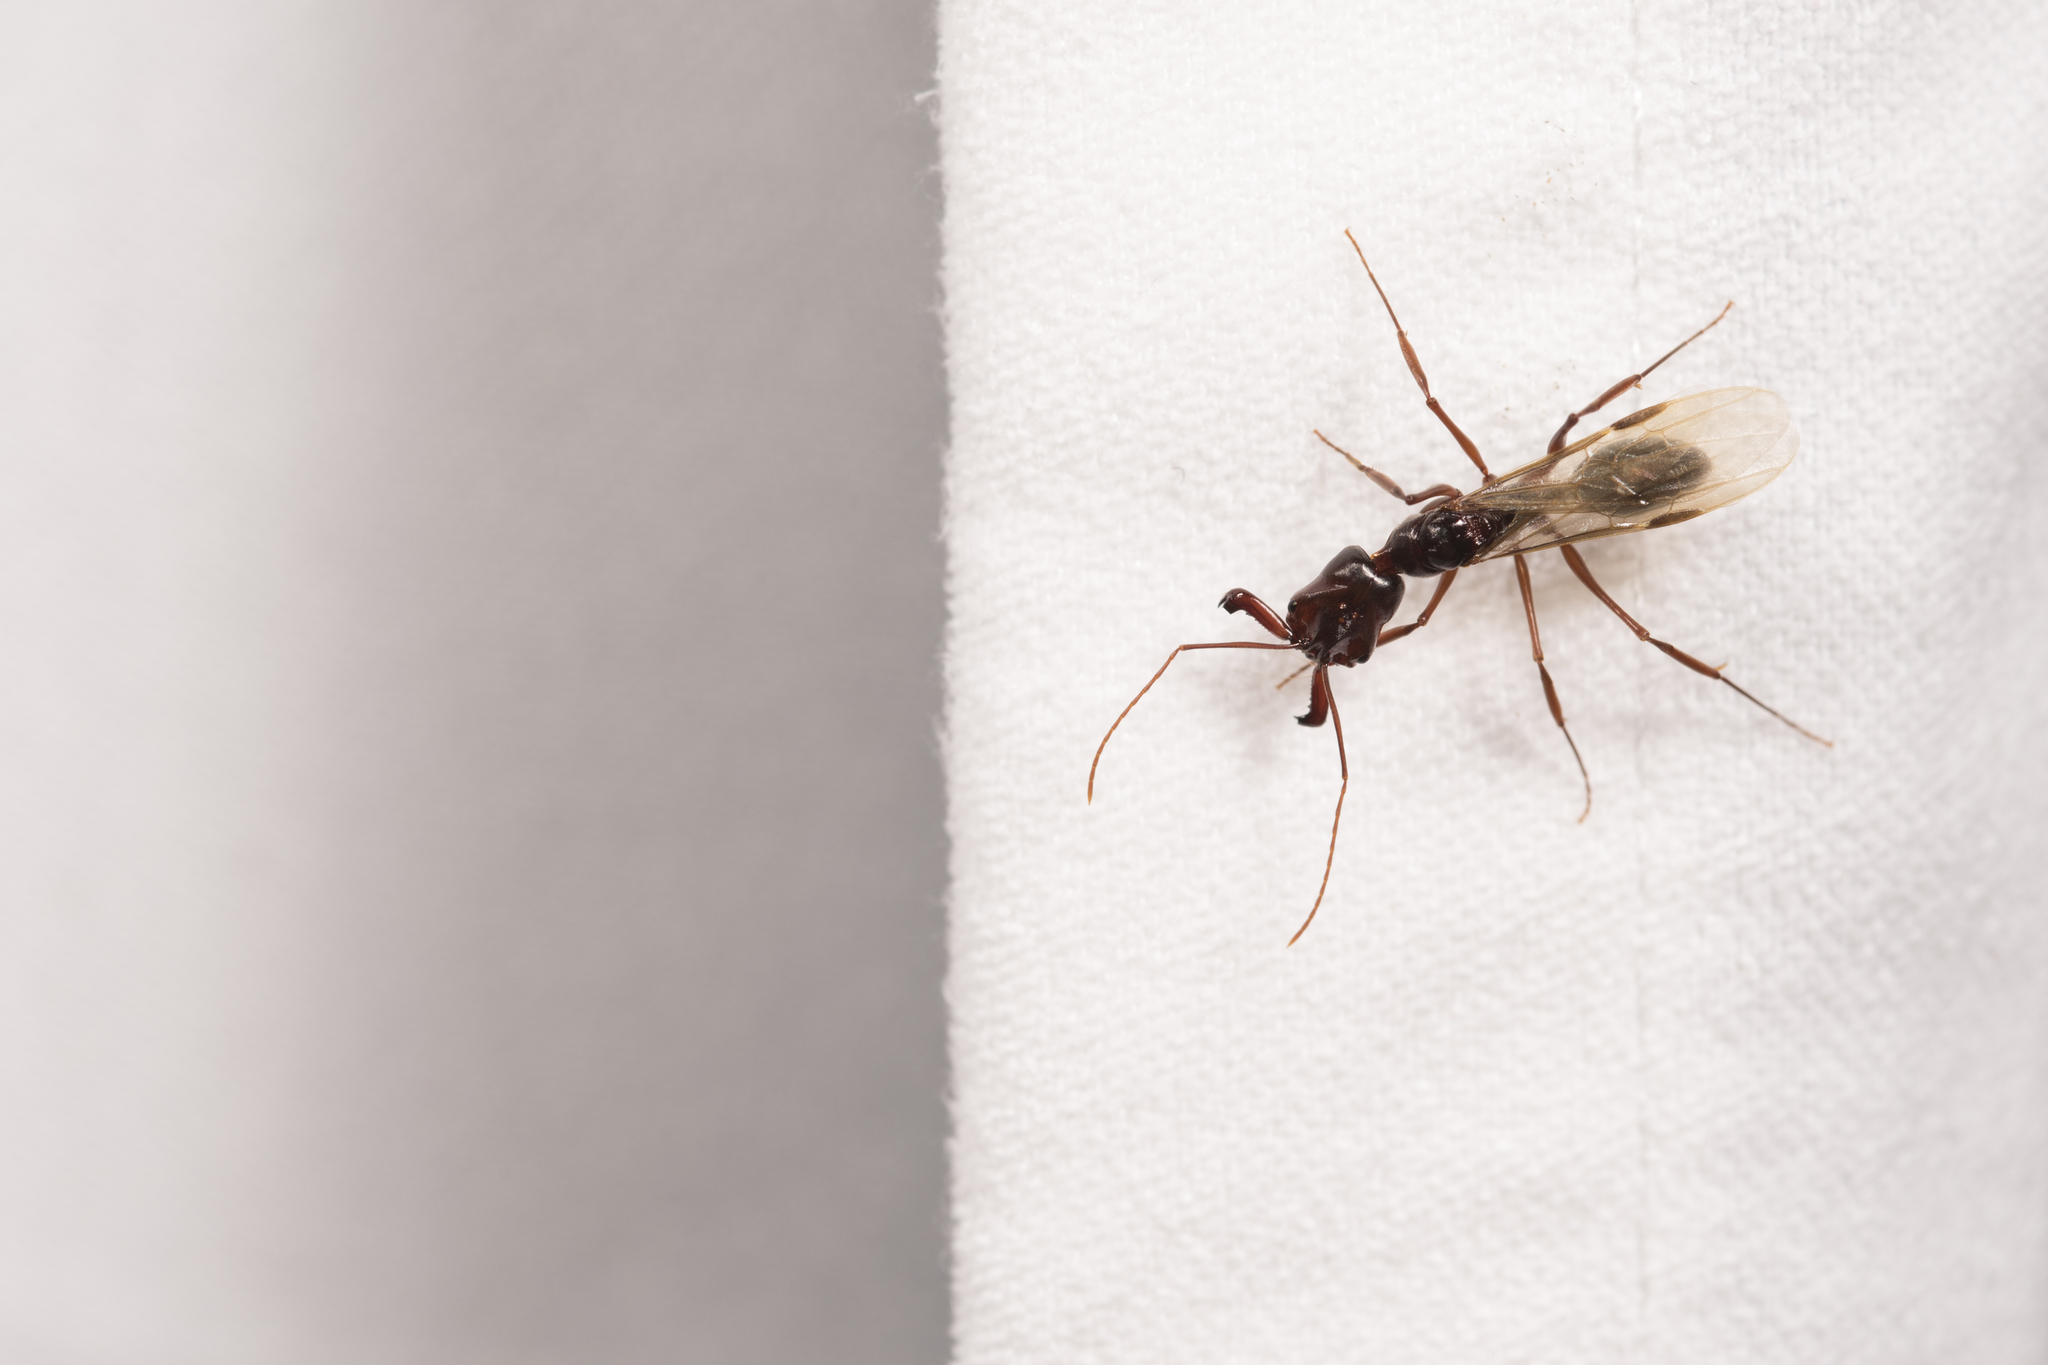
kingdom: Animalia
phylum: Arthropoda
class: Insecta
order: Hymenoptera
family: Formicidae
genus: Odontomachus
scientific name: Odontomachus monticola
